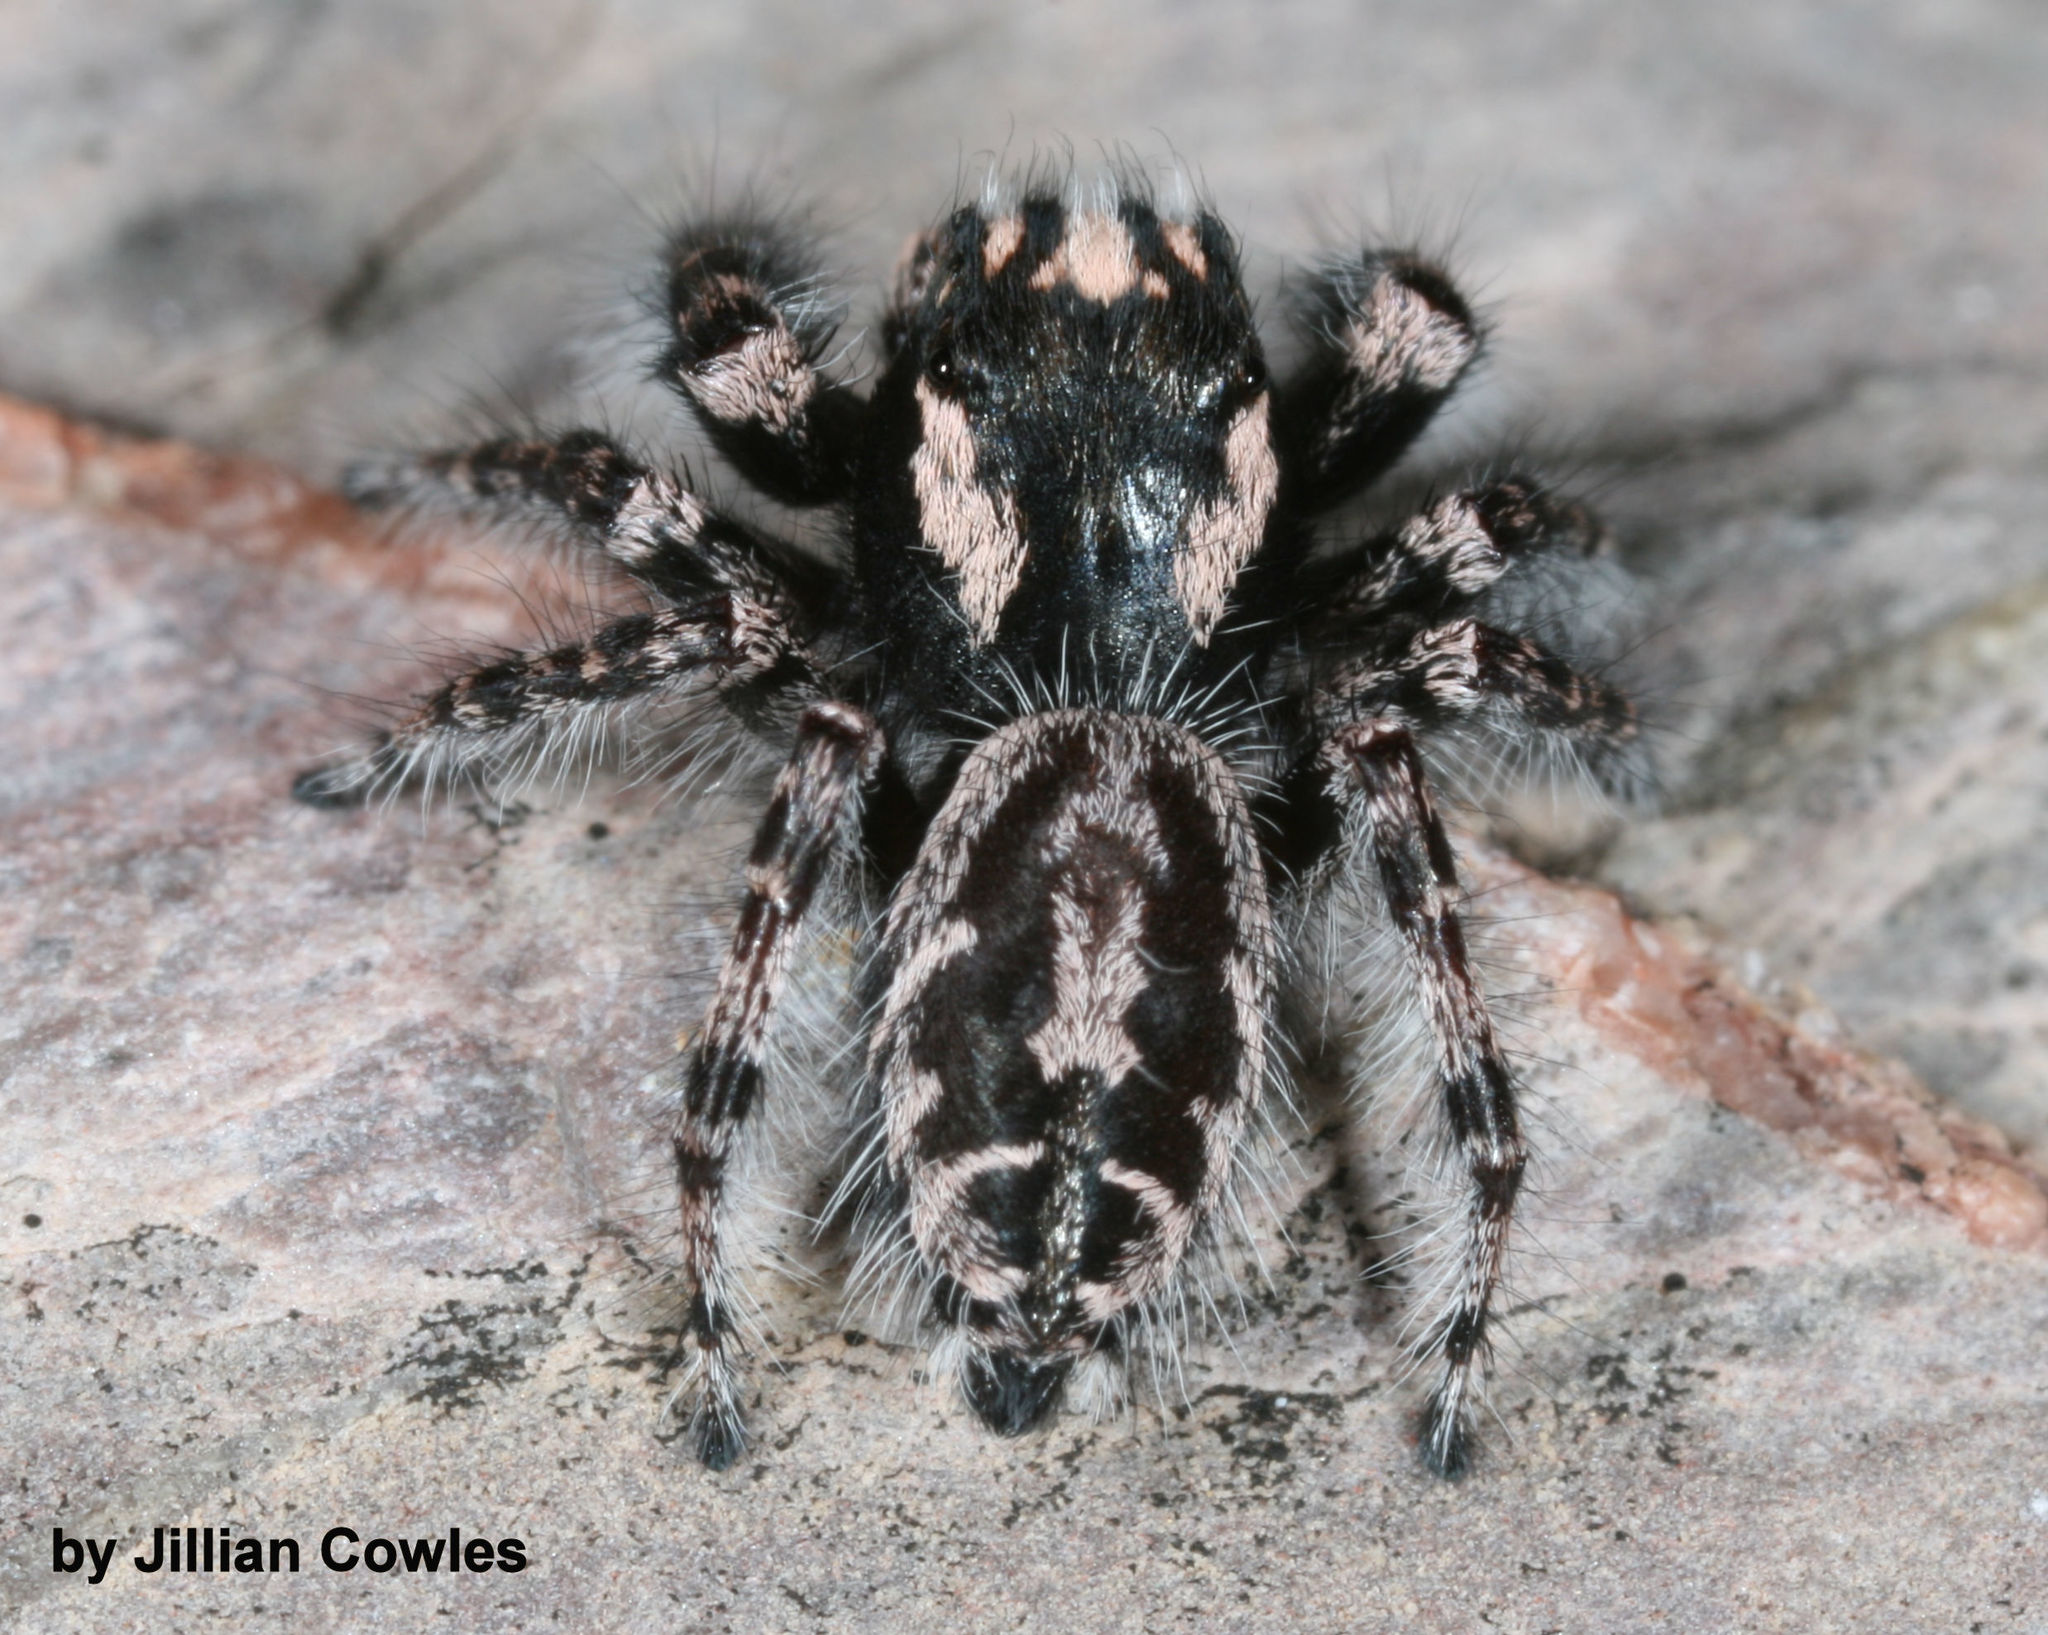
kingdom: Animalia
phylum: Arthropoda
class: Arachnida
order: Araneae
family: Salticidae
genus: Phidippus
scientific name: Phidippus tigris
